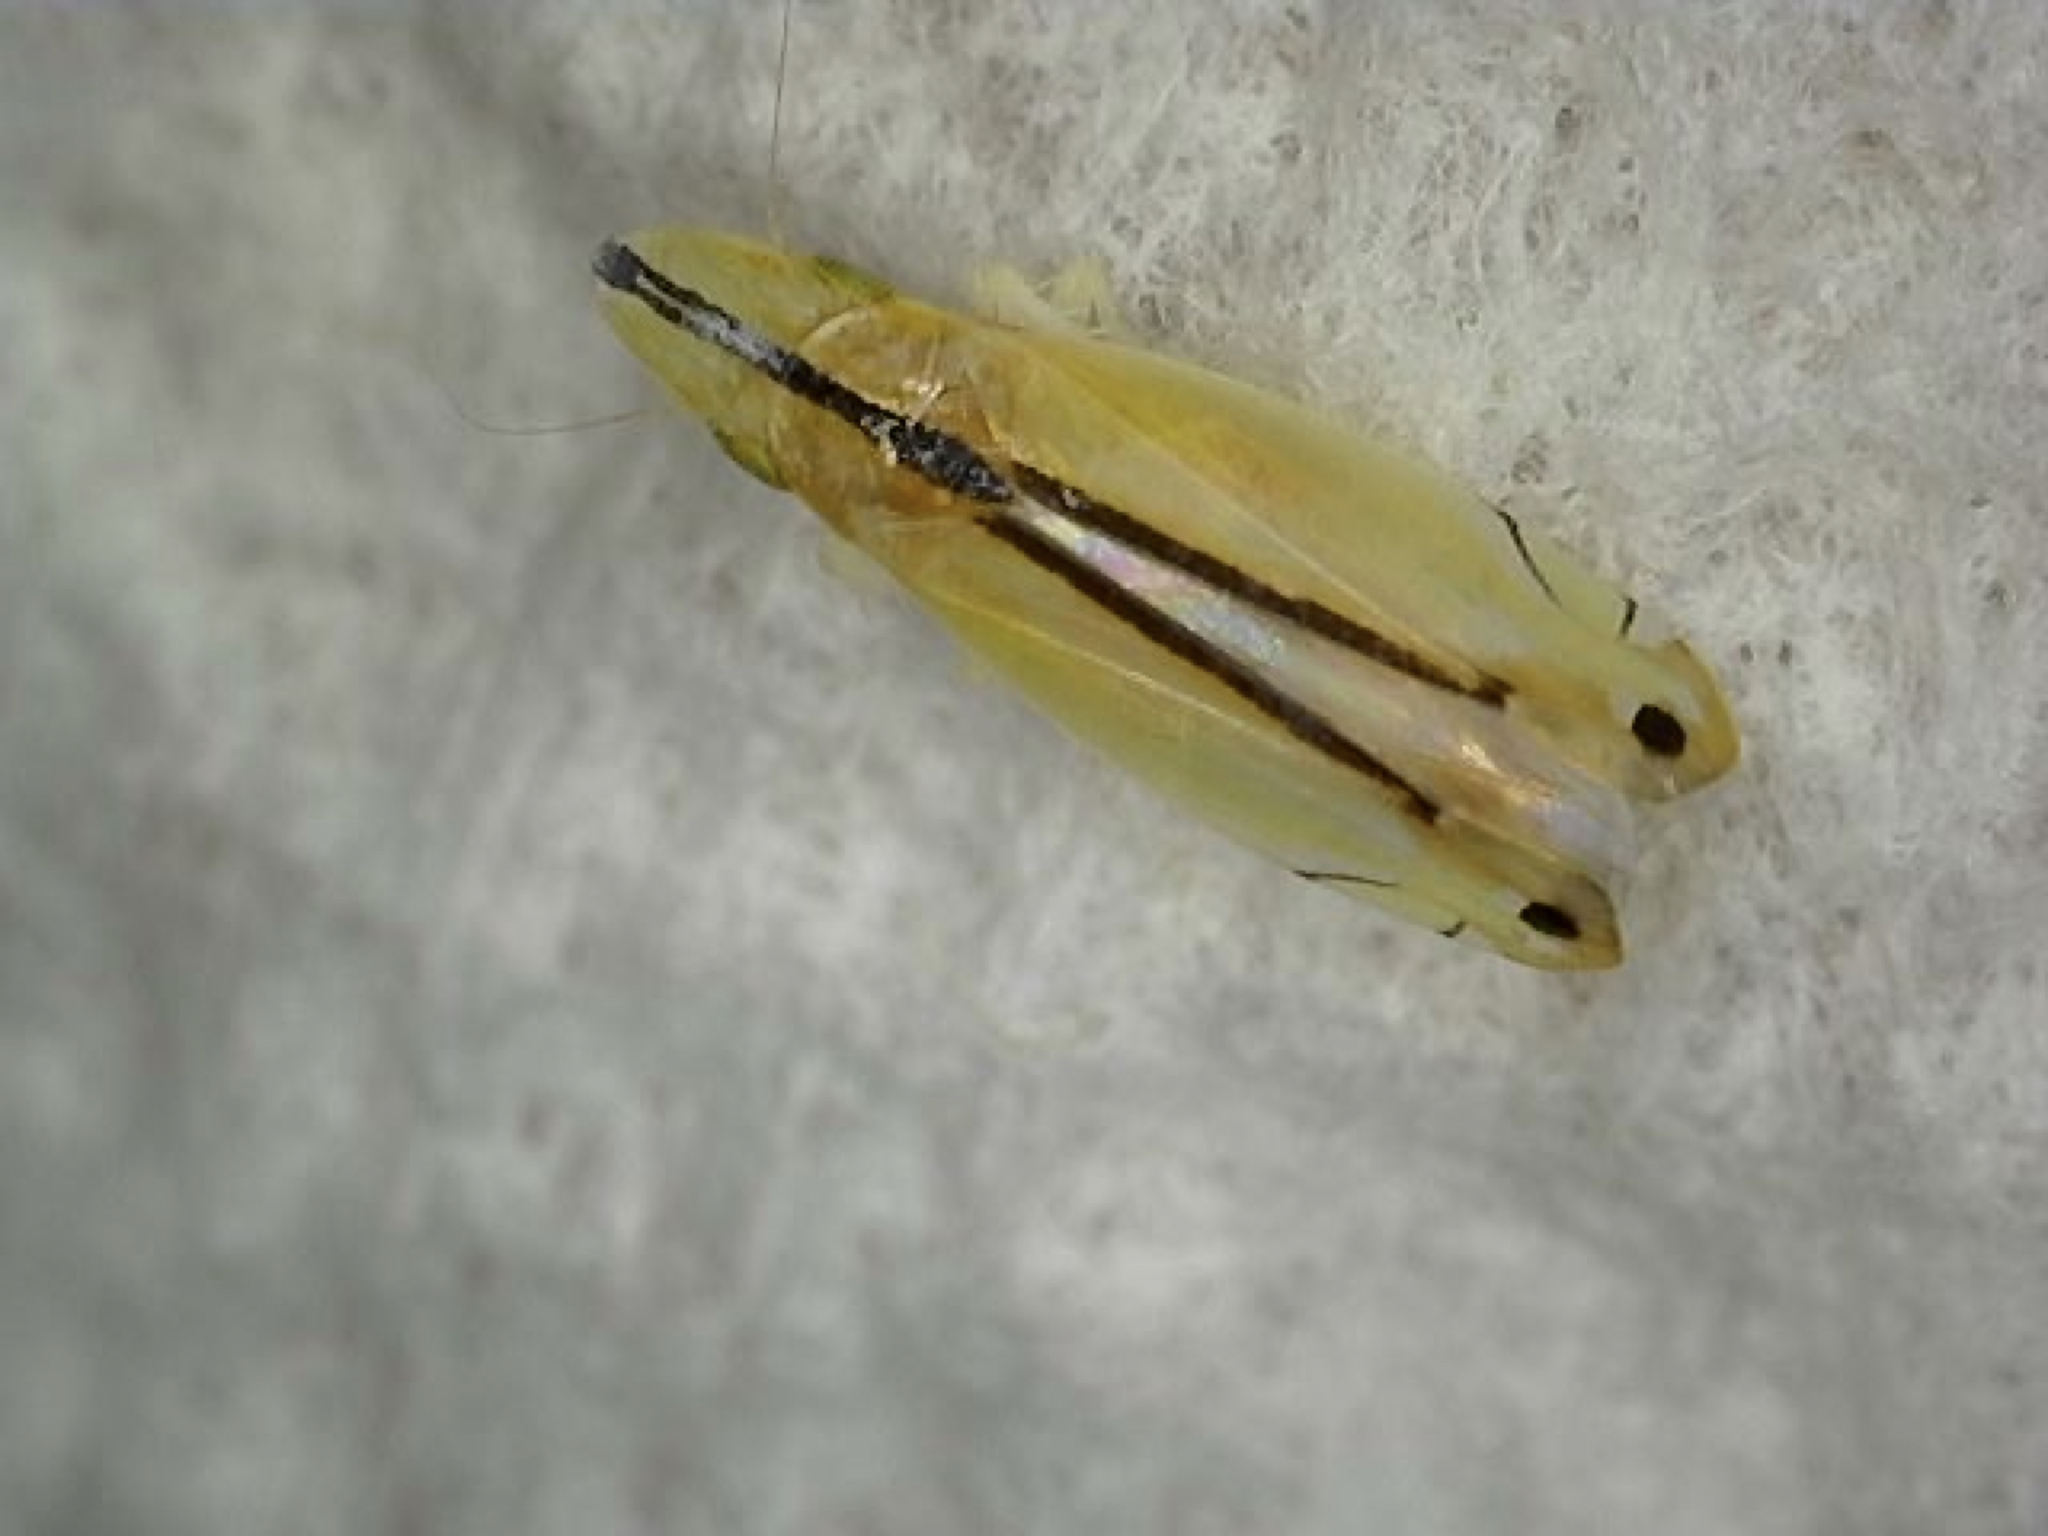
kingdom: Animalia
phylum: Arthropoda
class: Insecta
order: Hemiptera
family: Cicadellidae
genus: Sophonia
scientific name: Sophonia orientalis
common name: Two-spotted leafhopper
